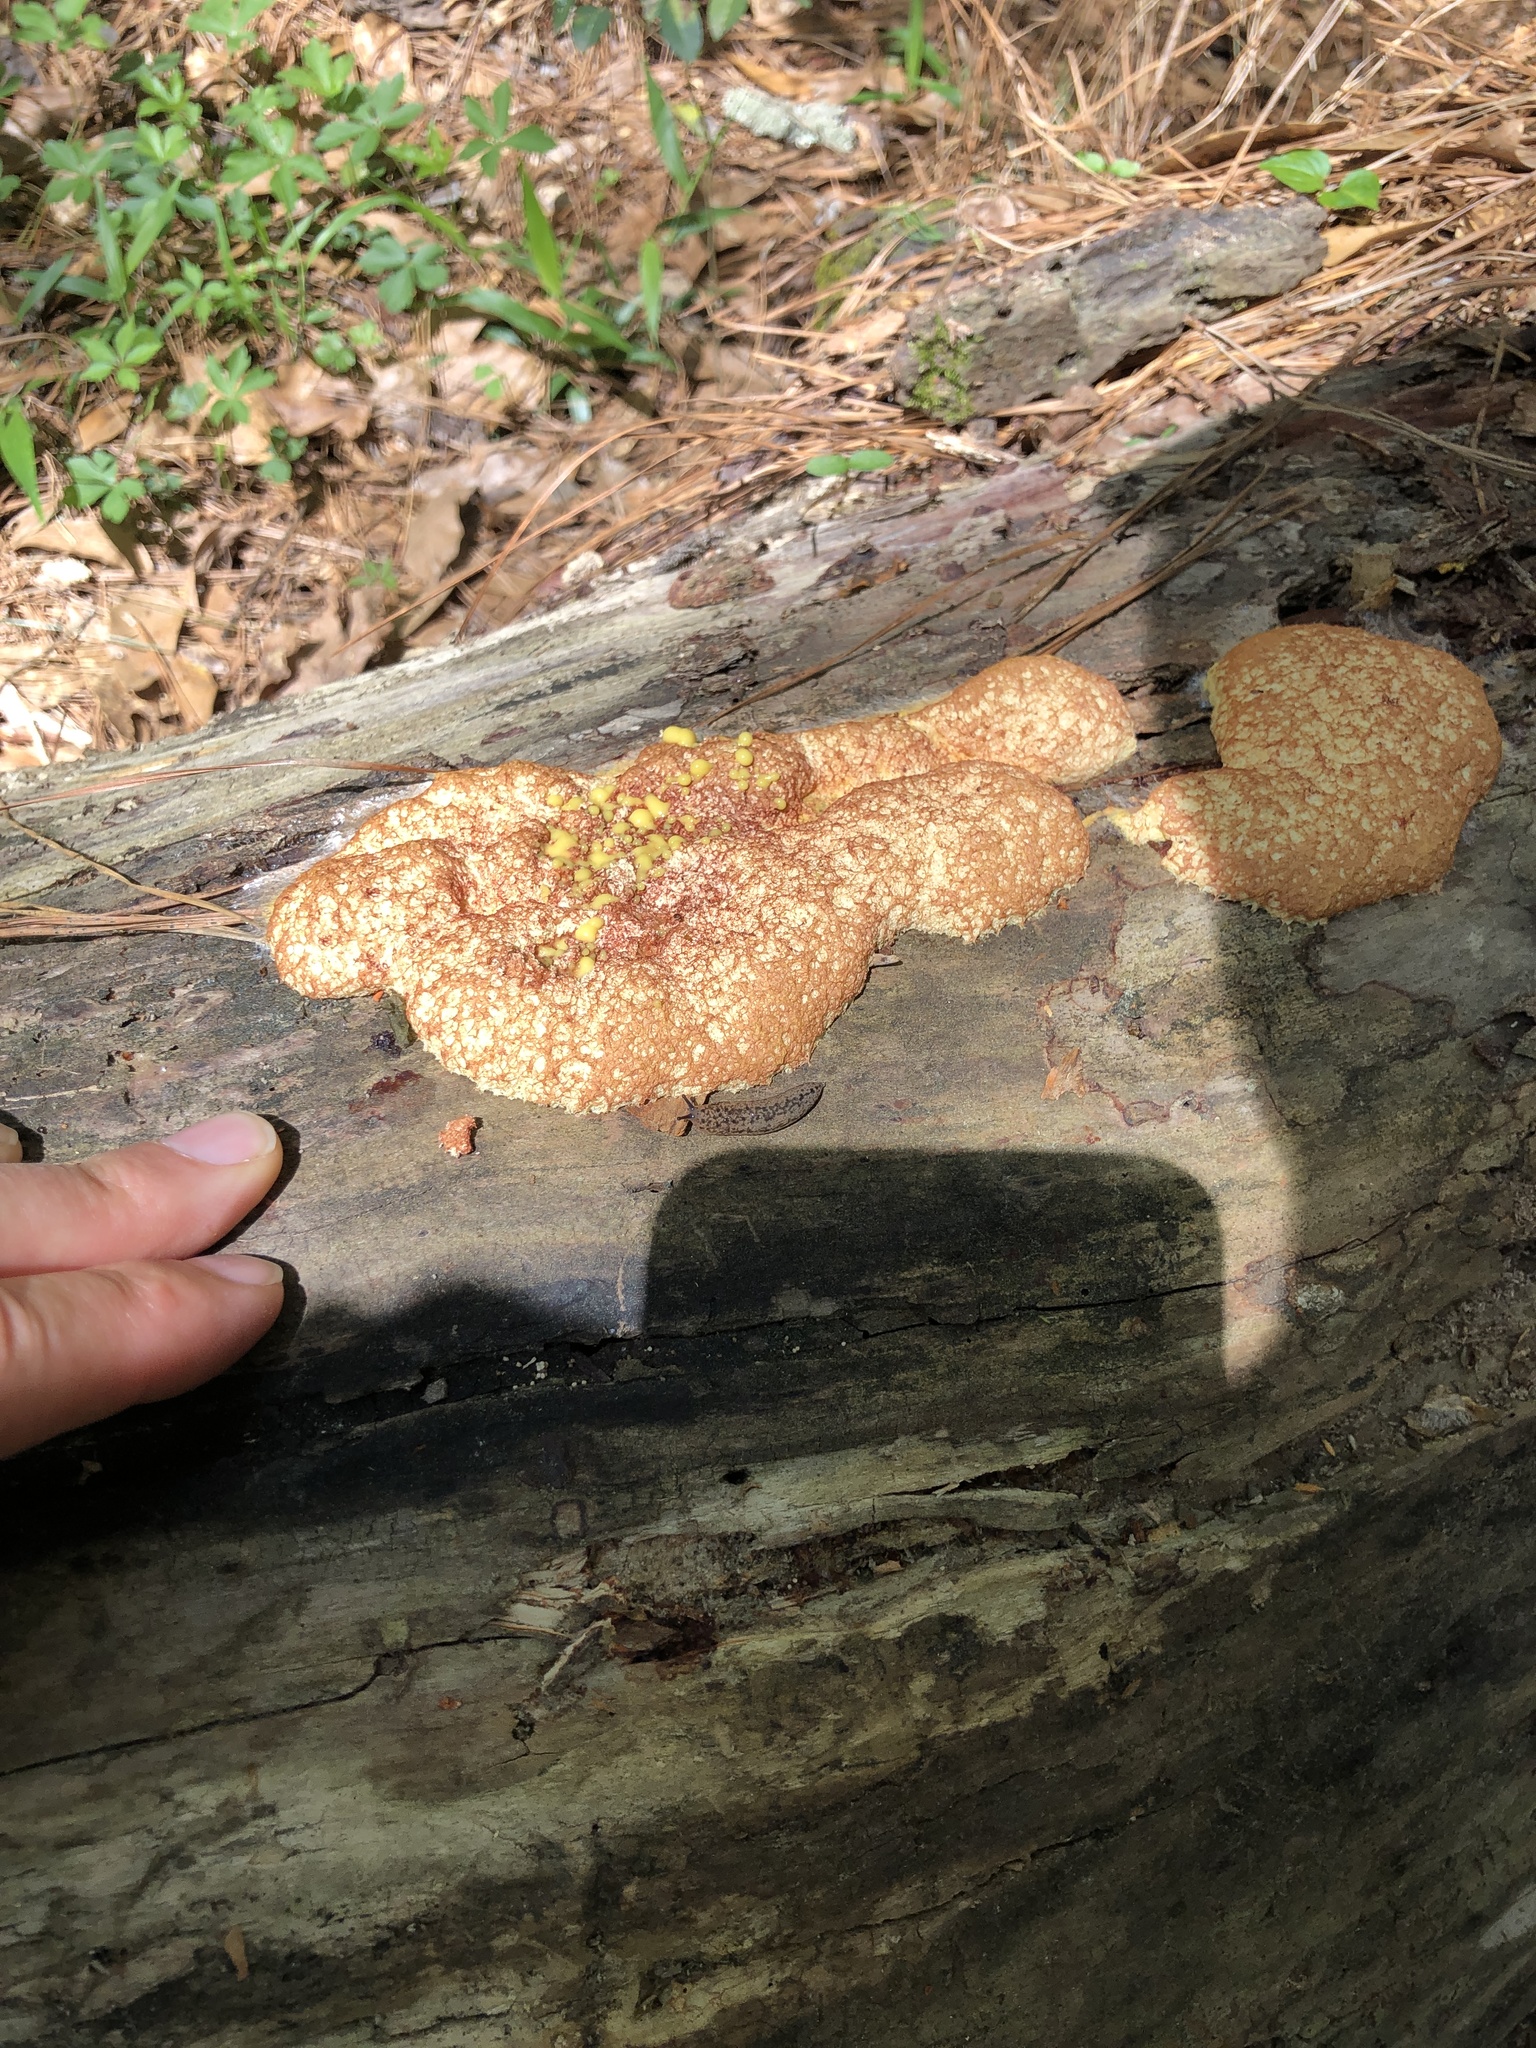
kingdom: Protozoa
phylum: Mycetozoa
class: Myxomycetes
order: Physarales
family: Physaraceae
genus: Fuligo
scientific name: Fuligo septica
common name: Dog vomit slime mold
